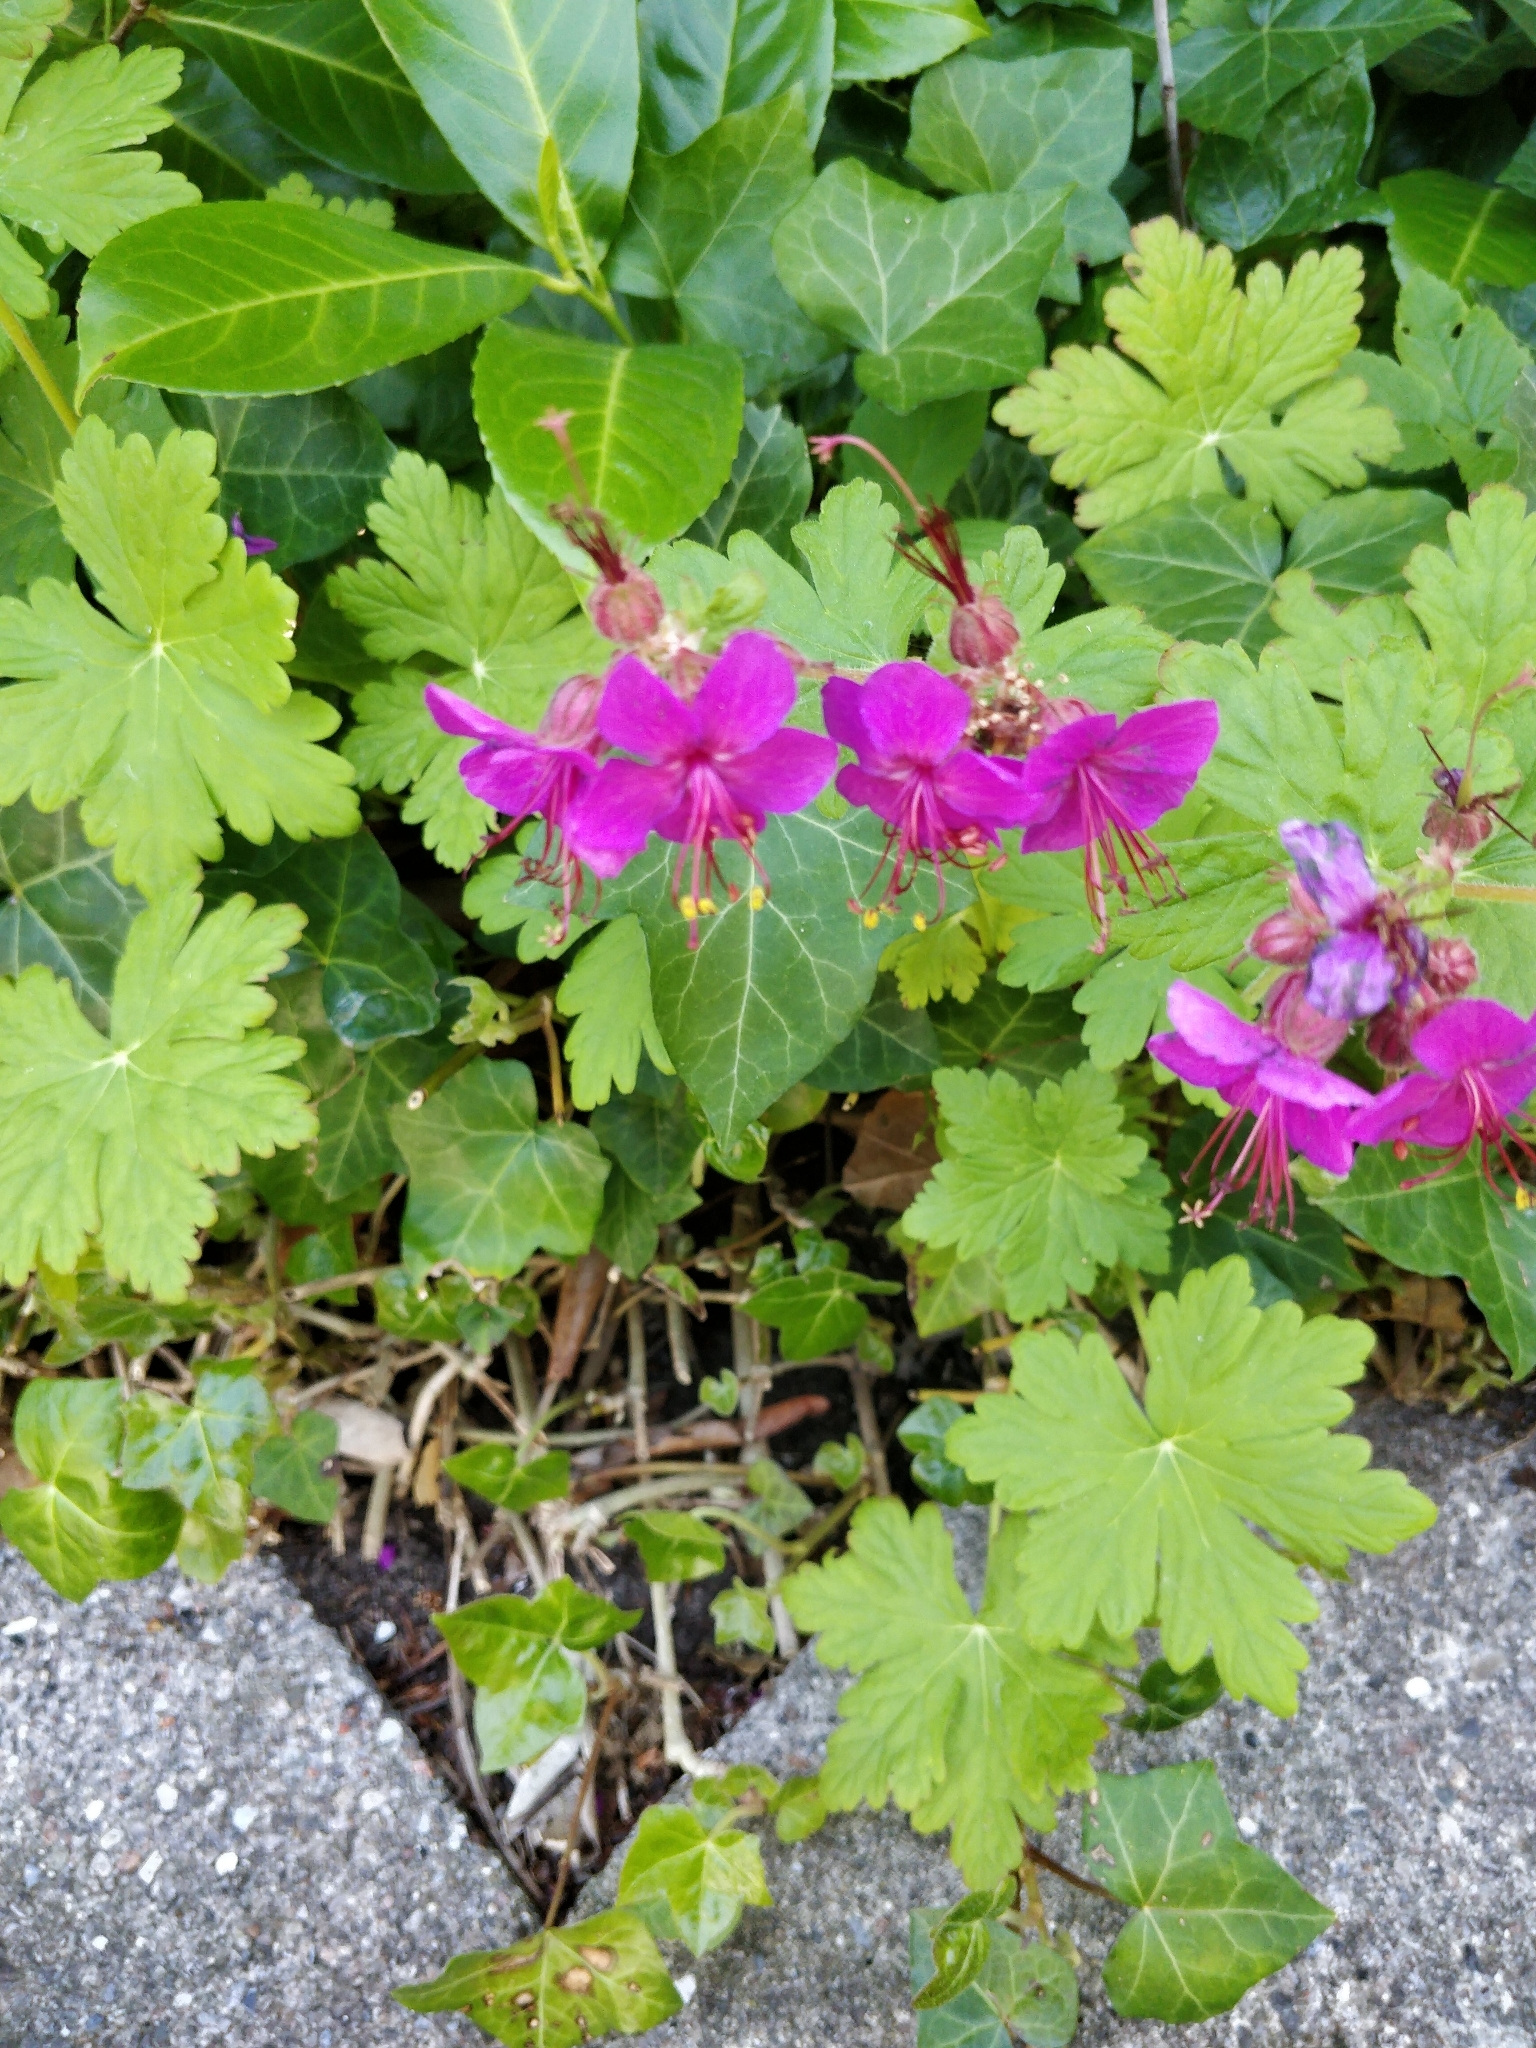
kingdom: Plantae
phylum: Tracheophyta
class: Magnoliopsida
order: Geraniales
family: Geraniaceae
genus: Geranium
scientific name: Geranium macrorrhizum
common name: Rock crane's-bill
